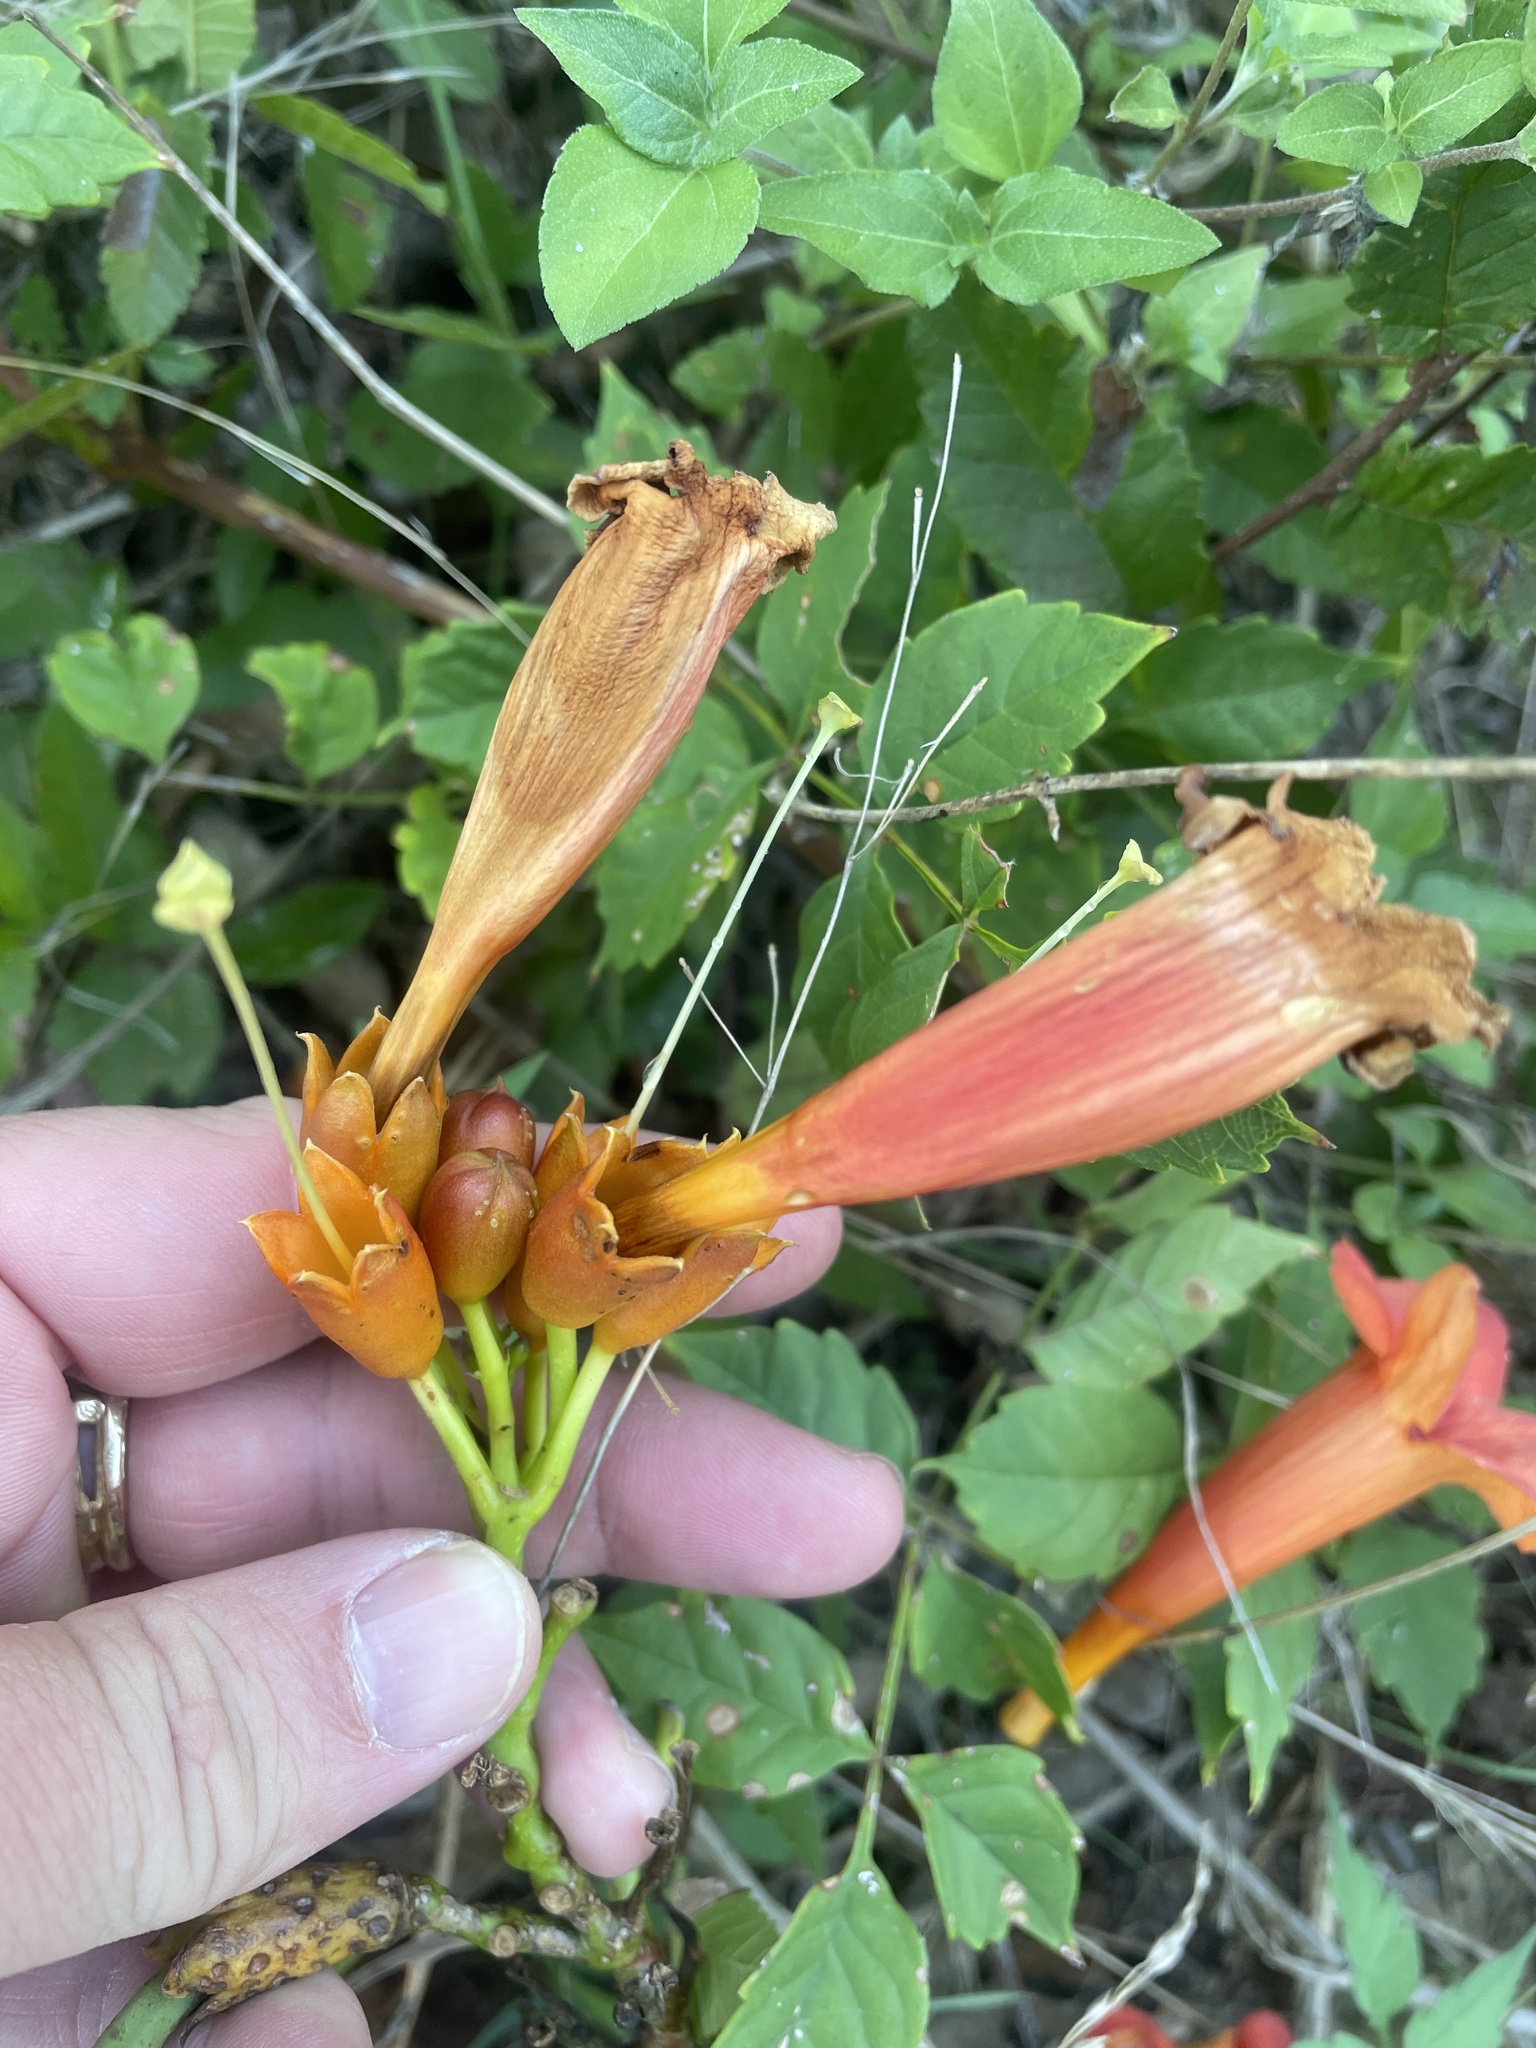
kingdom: Plantae
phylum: Tracheophyta
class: Magnoliopsida
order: Lamiales
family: Bignoniaceae
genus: Campsis
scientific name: Campsis radicans
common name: Trumpet-creeper
